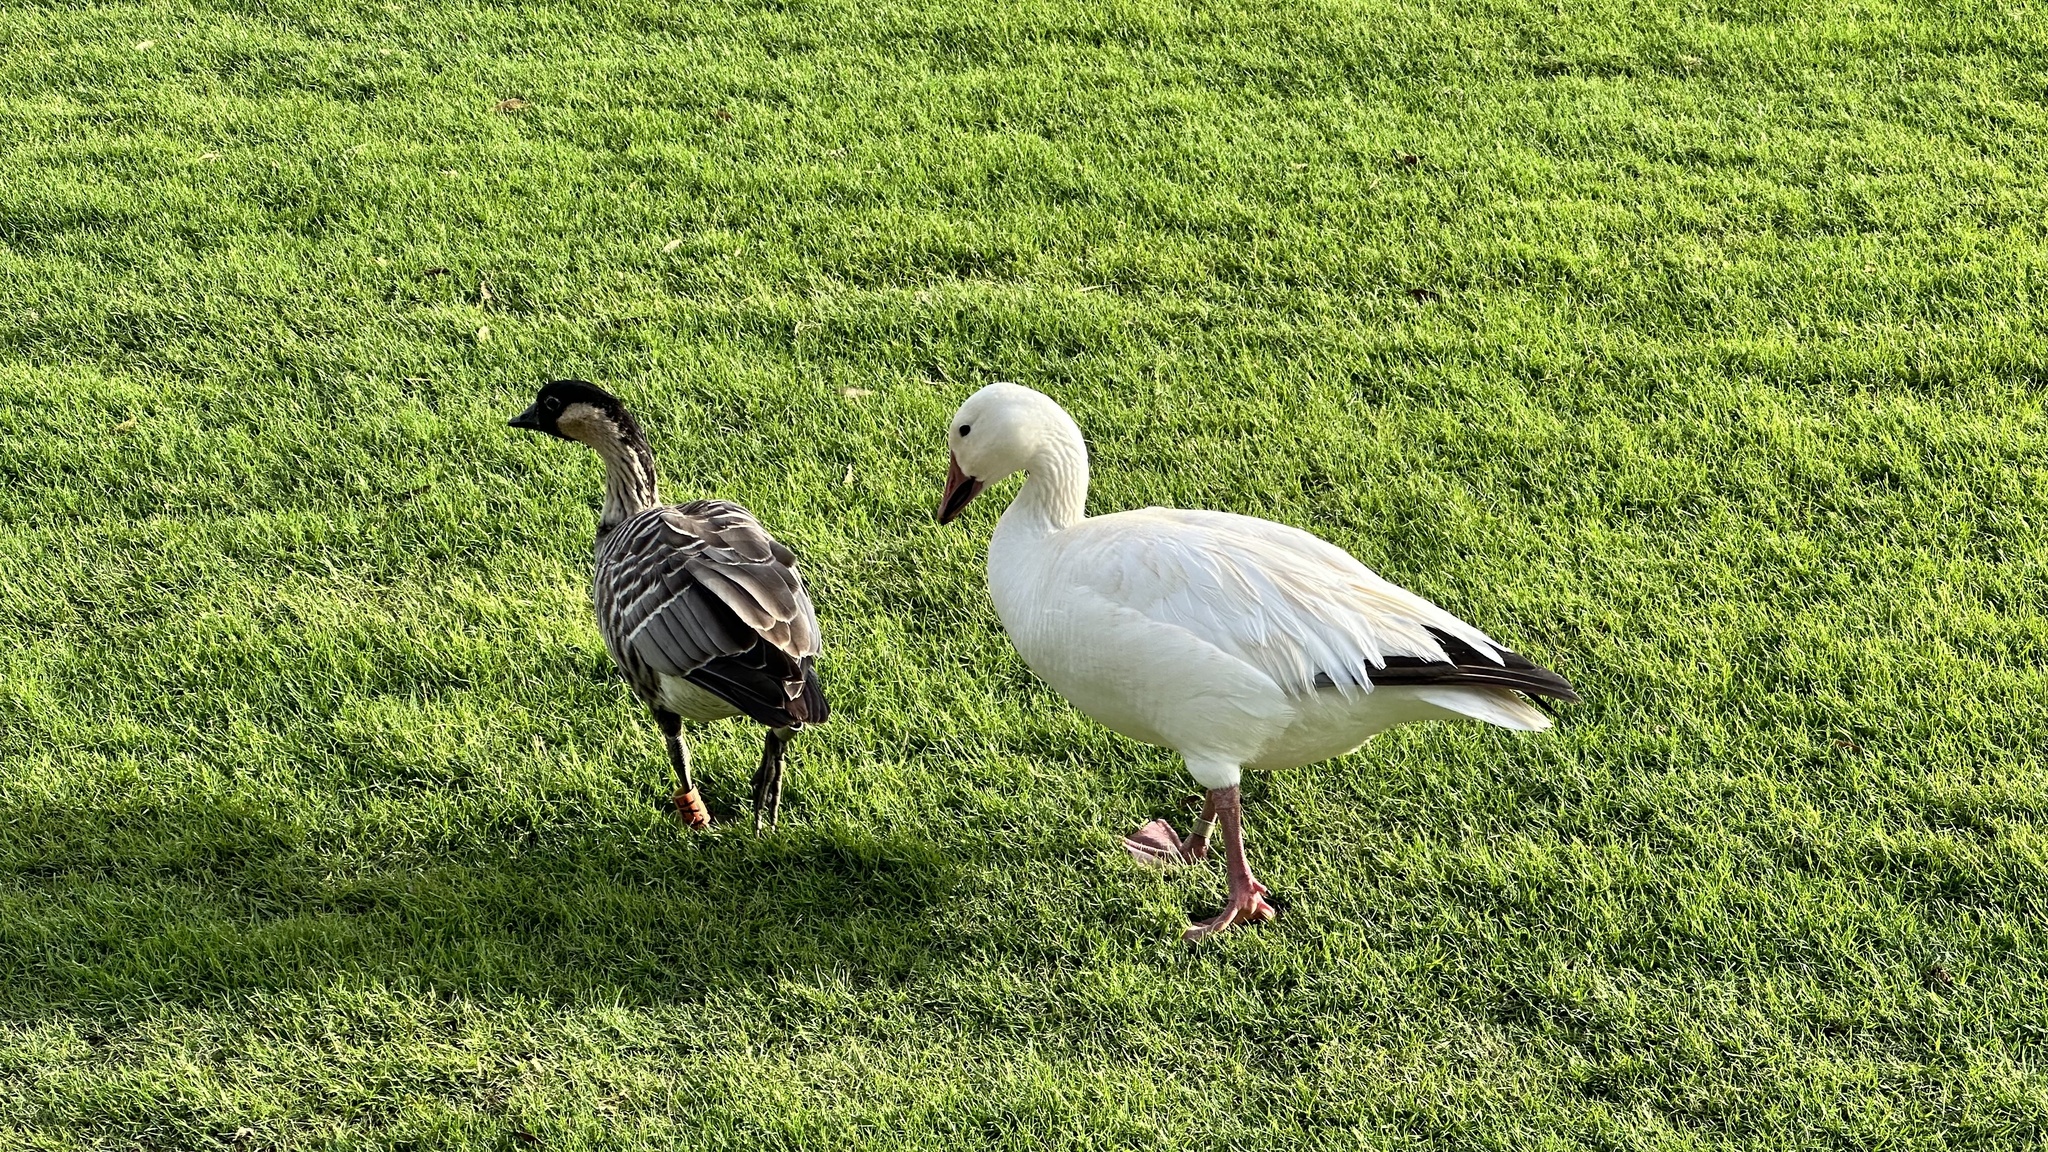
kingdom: Animalia
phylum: Chordata
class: Aves
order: Anseriformes
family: Anatidae
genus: Anser
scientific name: Anser caerulescens
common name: Snow goose
